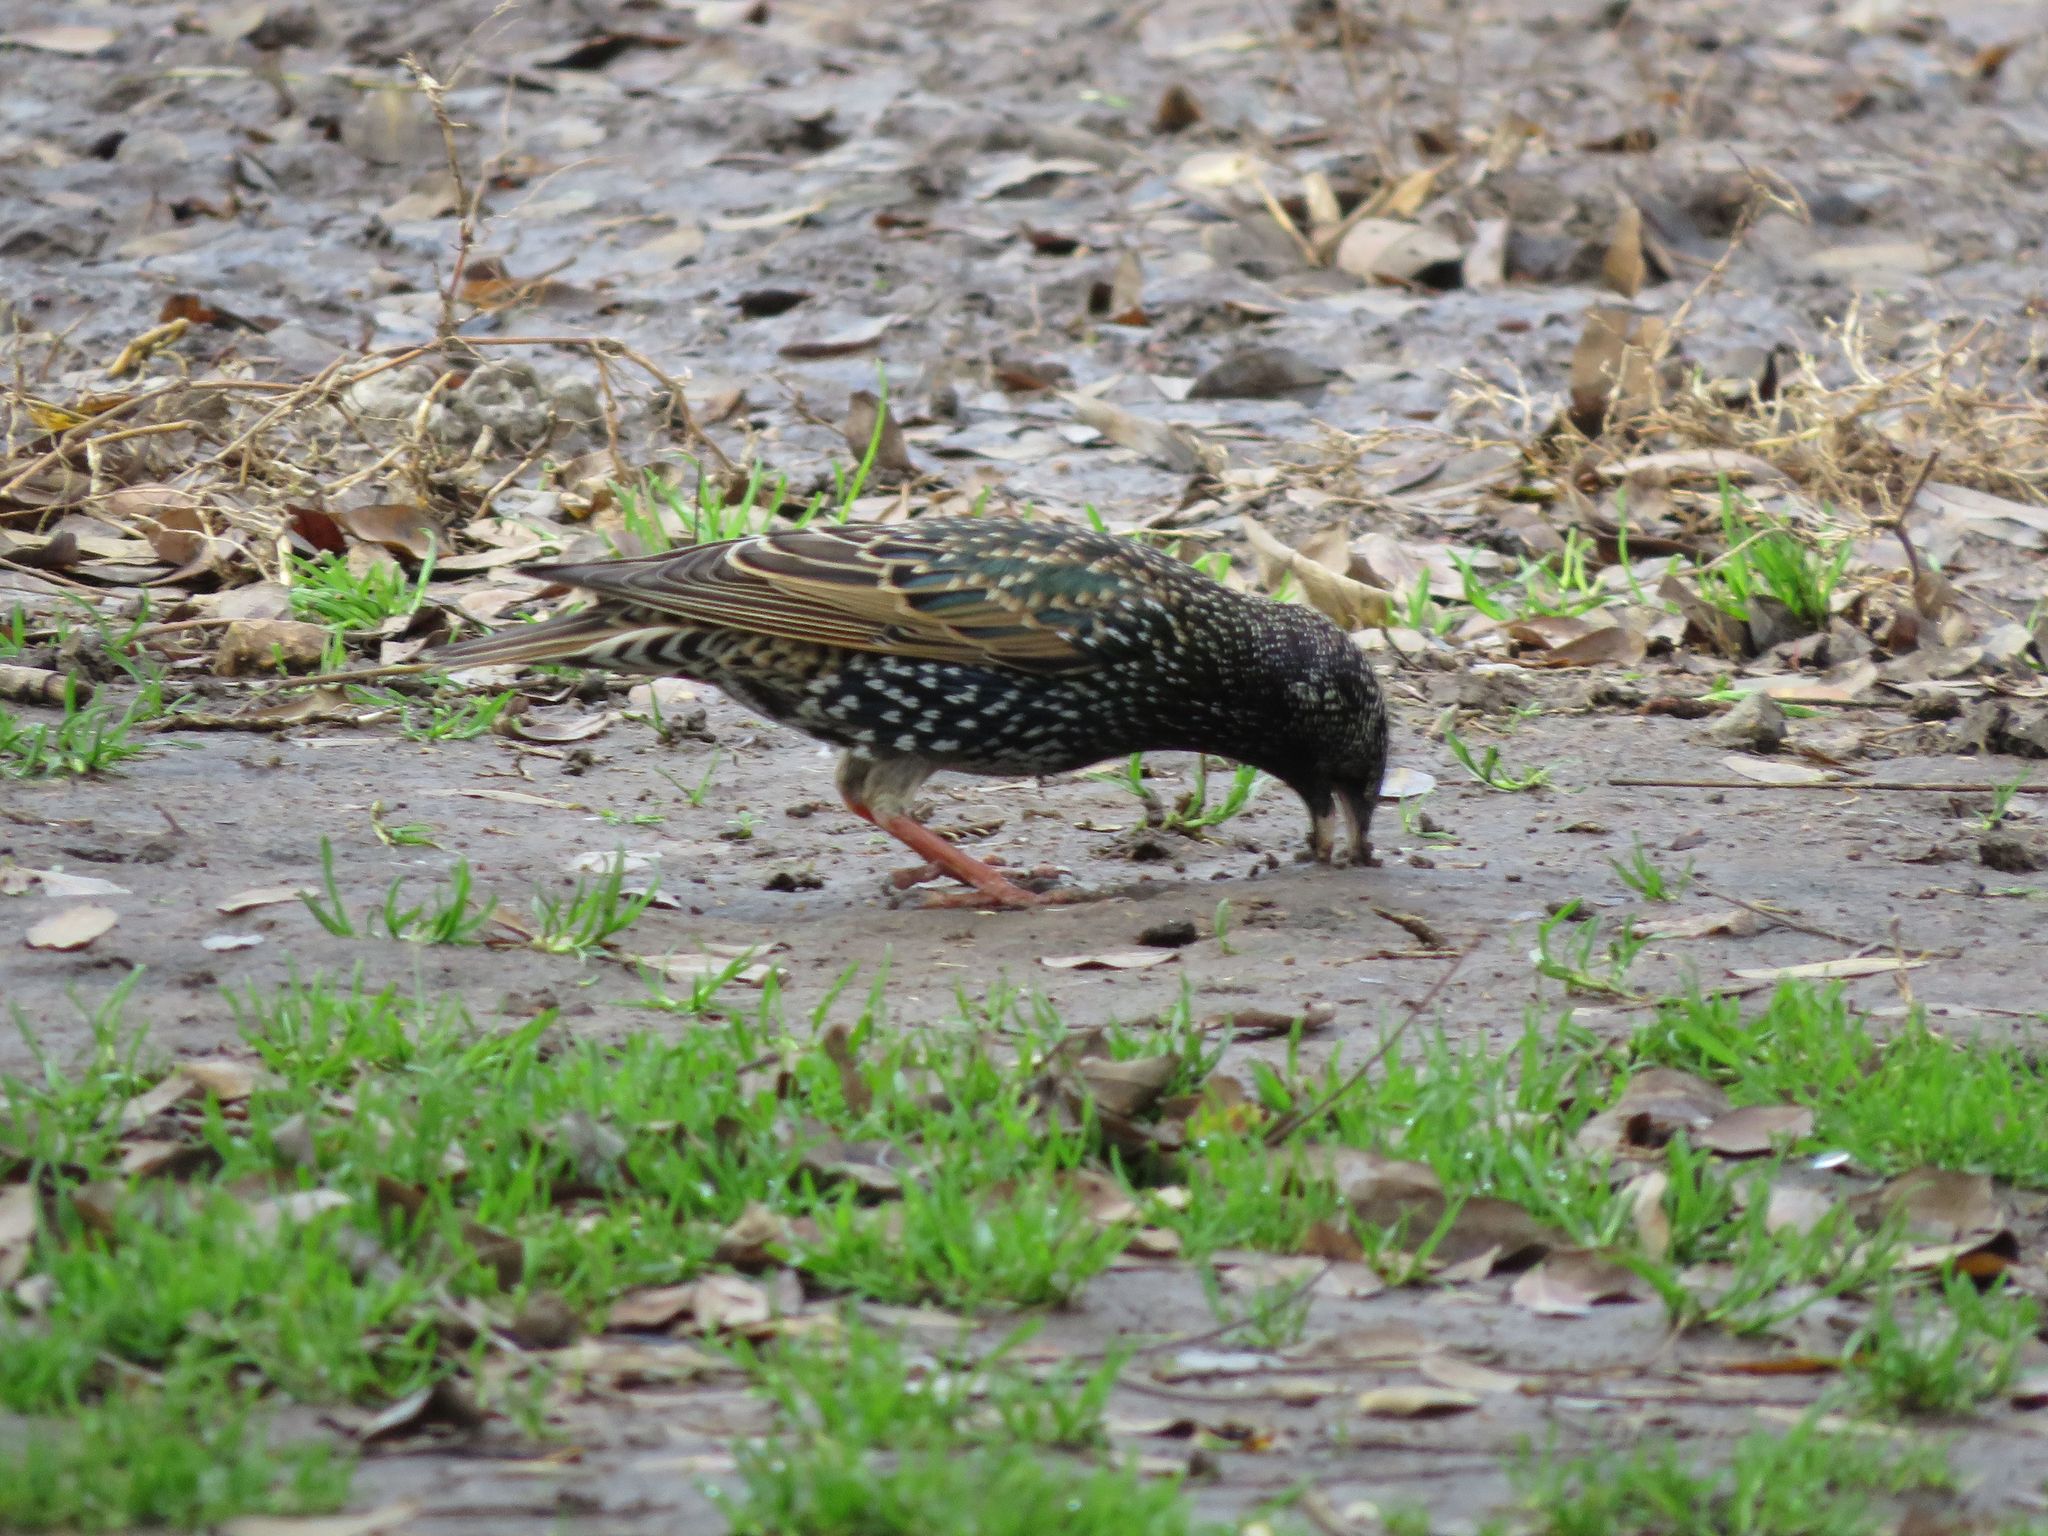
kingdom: Animalia
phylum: Chordata
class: Aves
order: Passeriformes
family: Sturnidae
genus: Sturnus
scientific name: Sturnus vulgaris
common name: Common starling
